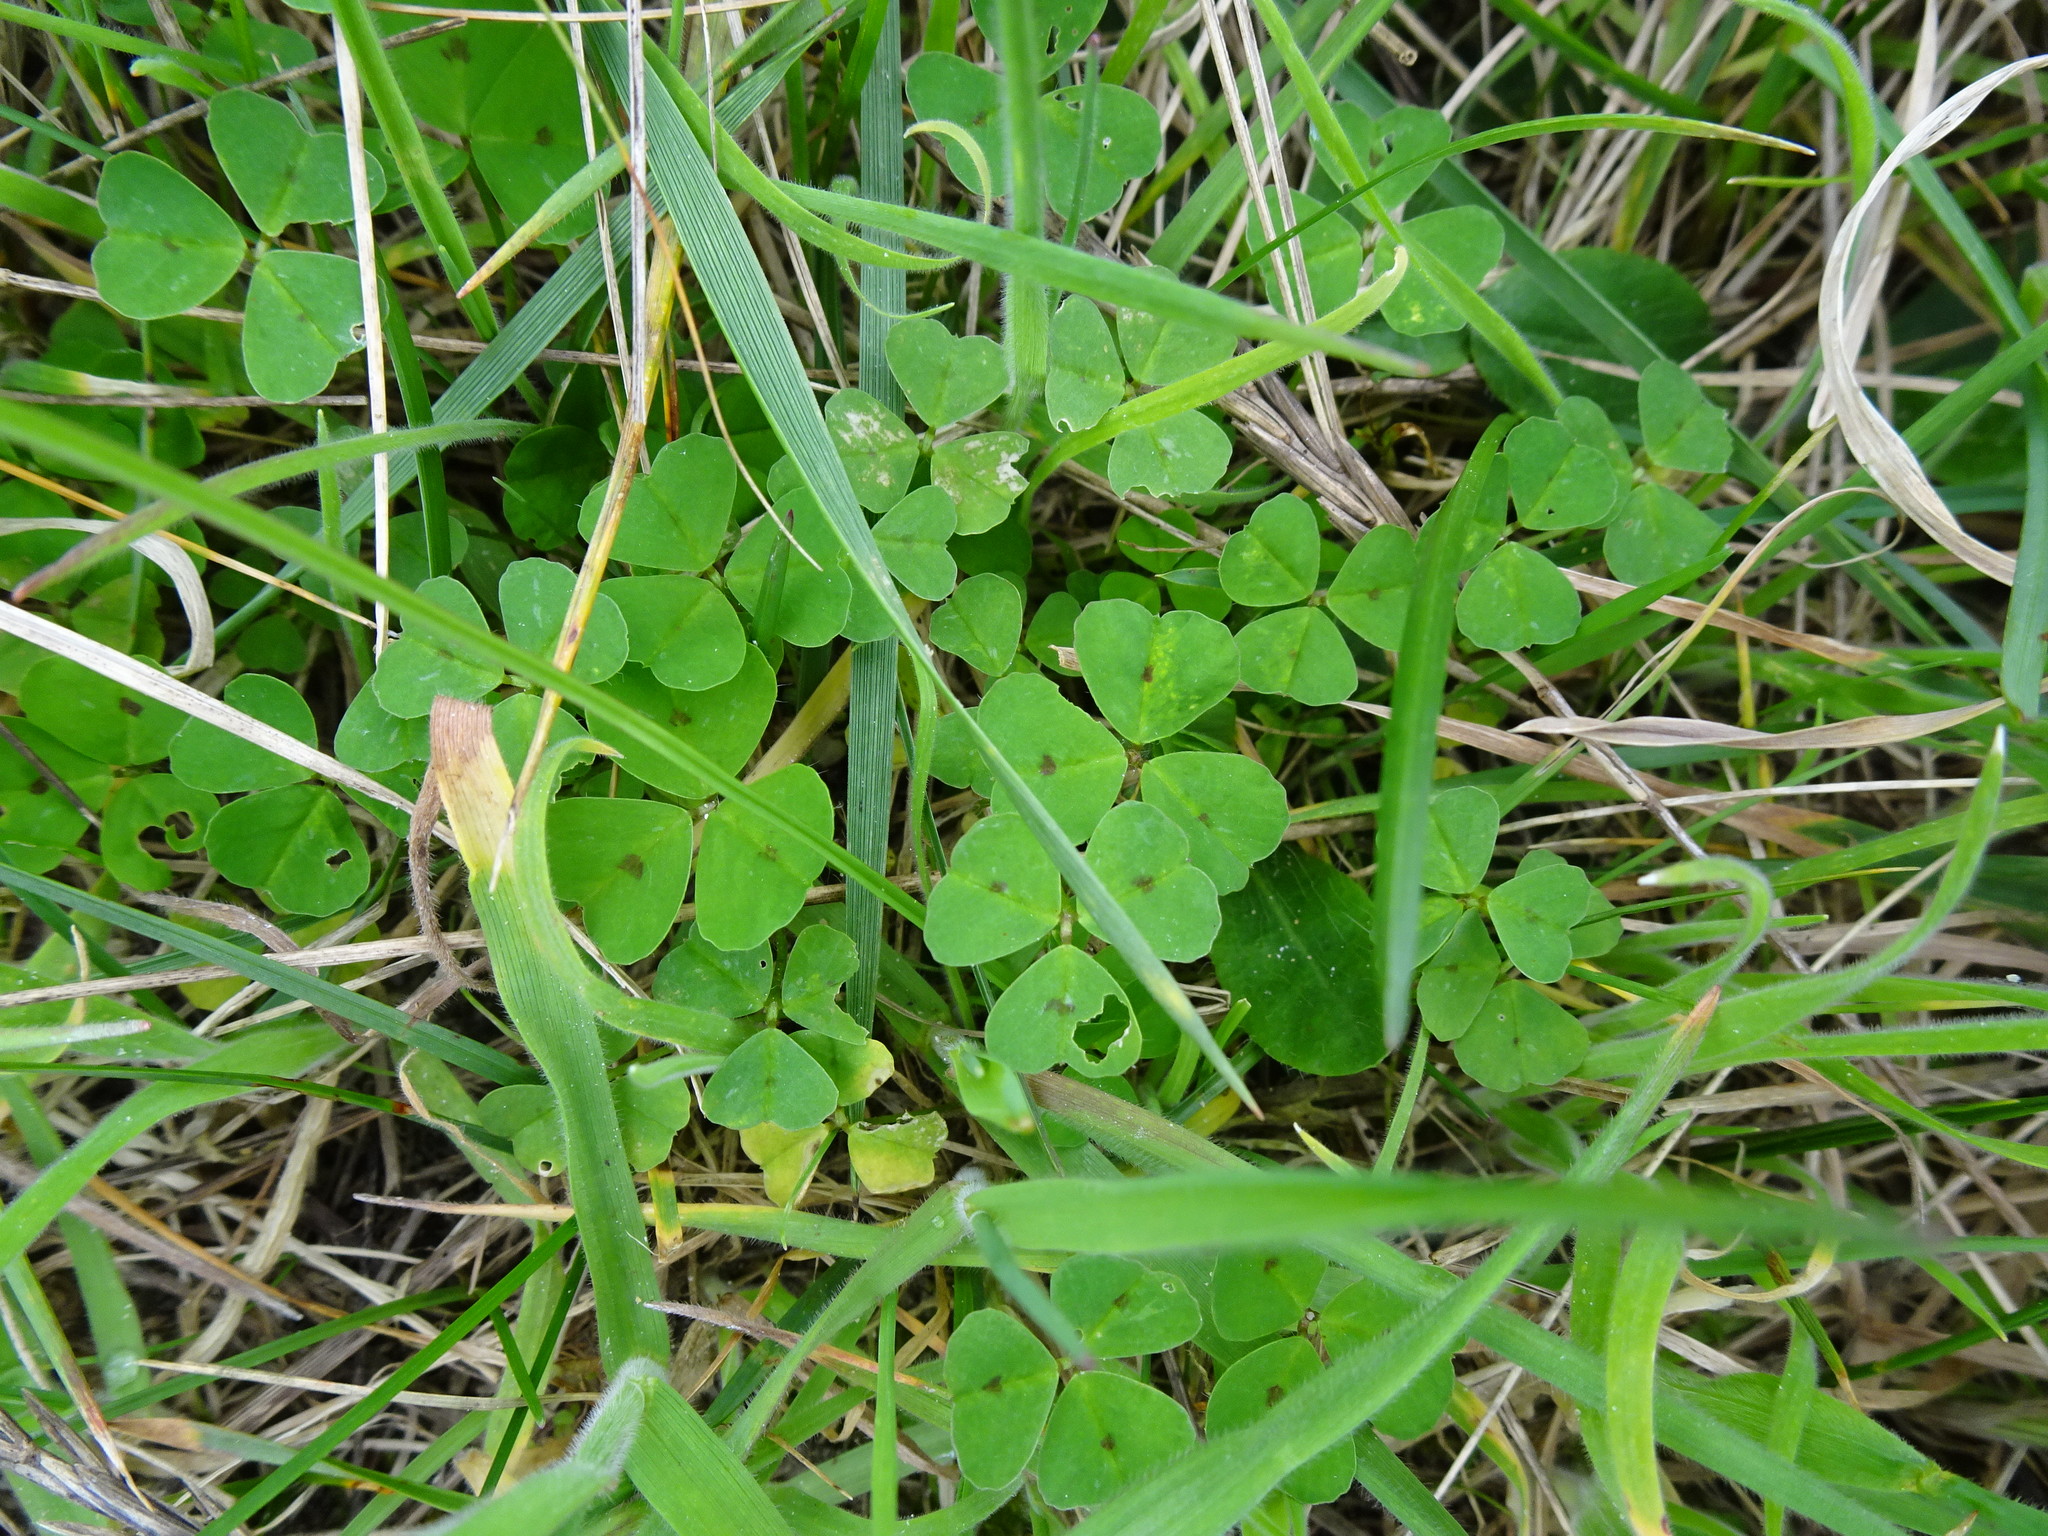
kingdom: Plantae
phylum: Tracheophyta
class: Magnoliopsida
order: Fabales
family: Fabaceae
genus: Medicago
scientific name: Medicago arabica
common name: Spotted medick
